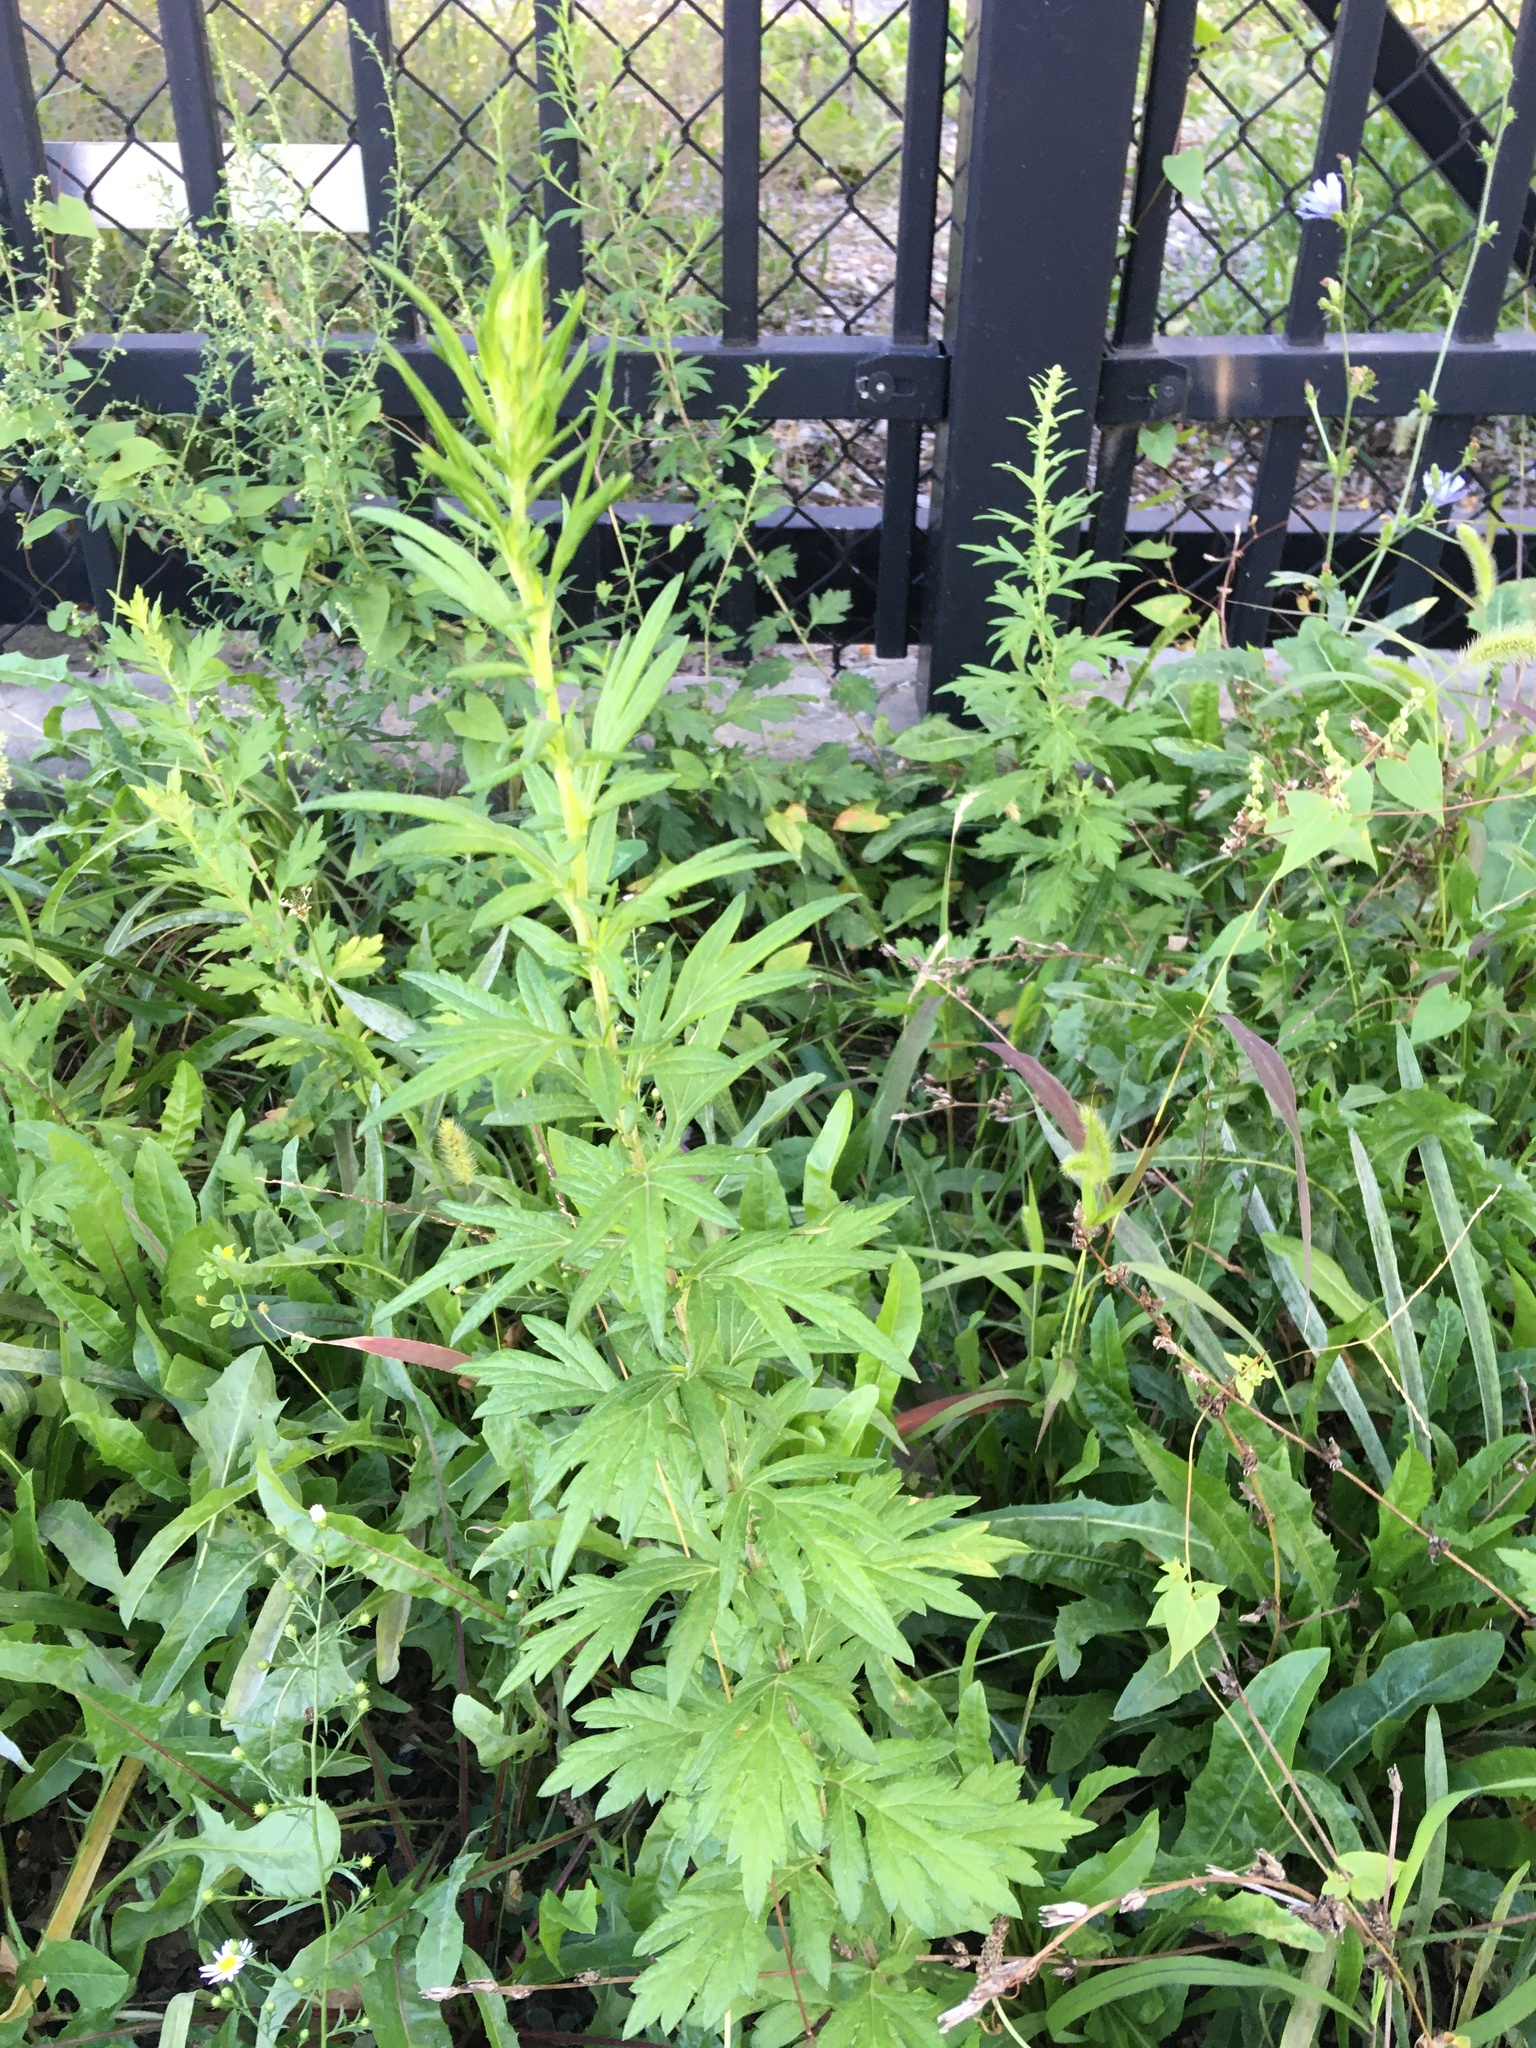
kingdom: Plantae
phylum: Tracheophyta
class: Magnoliopsida
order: Asterales
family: Asteraceae
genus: Artemisia
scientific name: Artemisia vulgaris
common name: Mugwort
